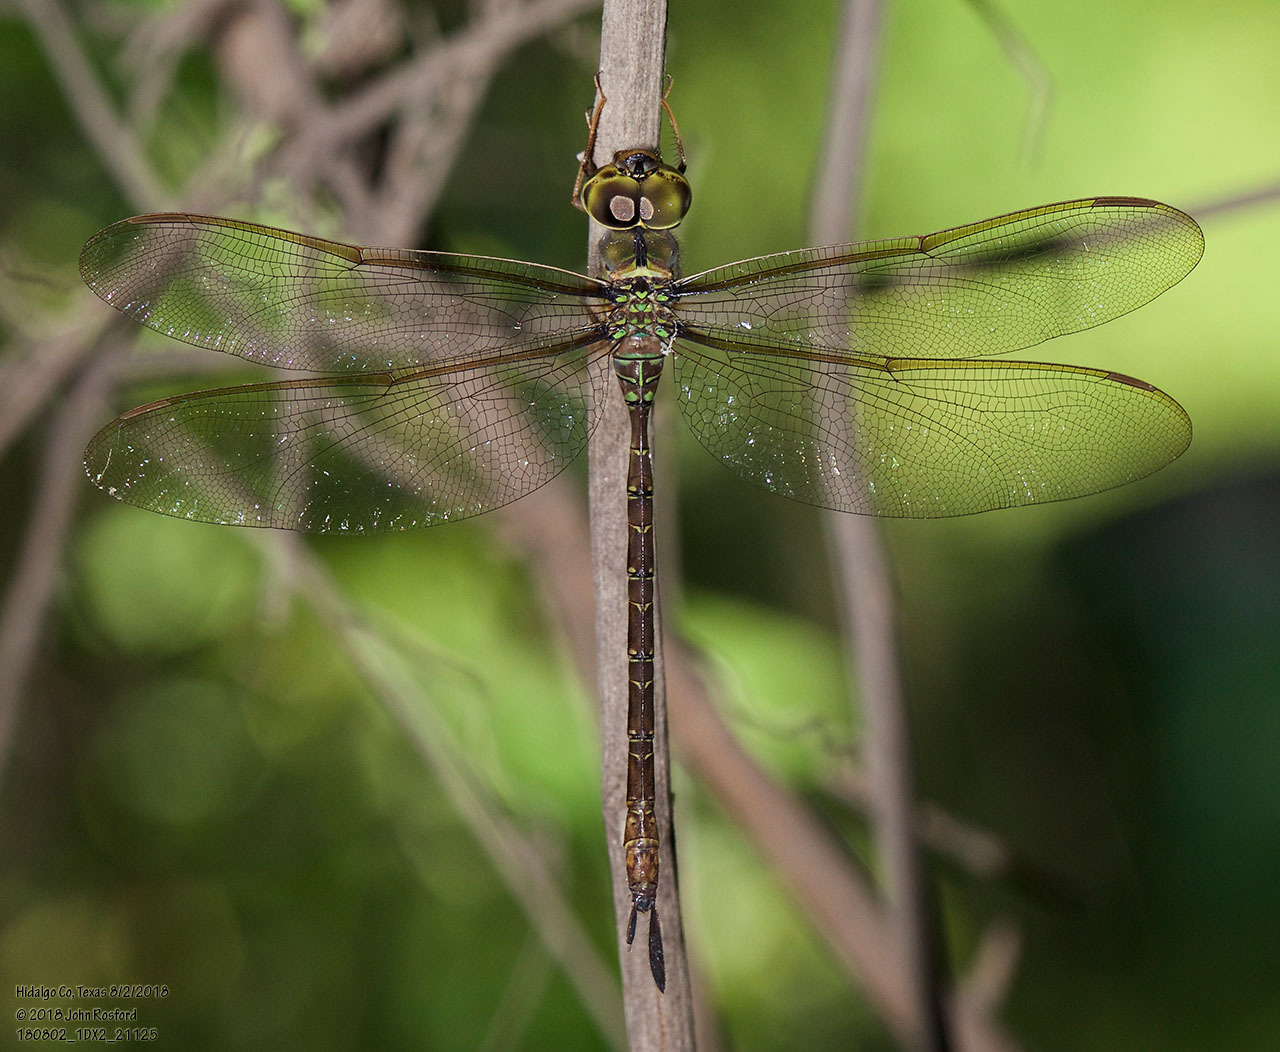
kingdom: Animalia
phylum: Arthropoda
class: Insecta
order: Odonata
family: Aeshnidae
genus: Gynacantha
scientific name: Gynacantha mexicana
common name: Bar-sided darner
